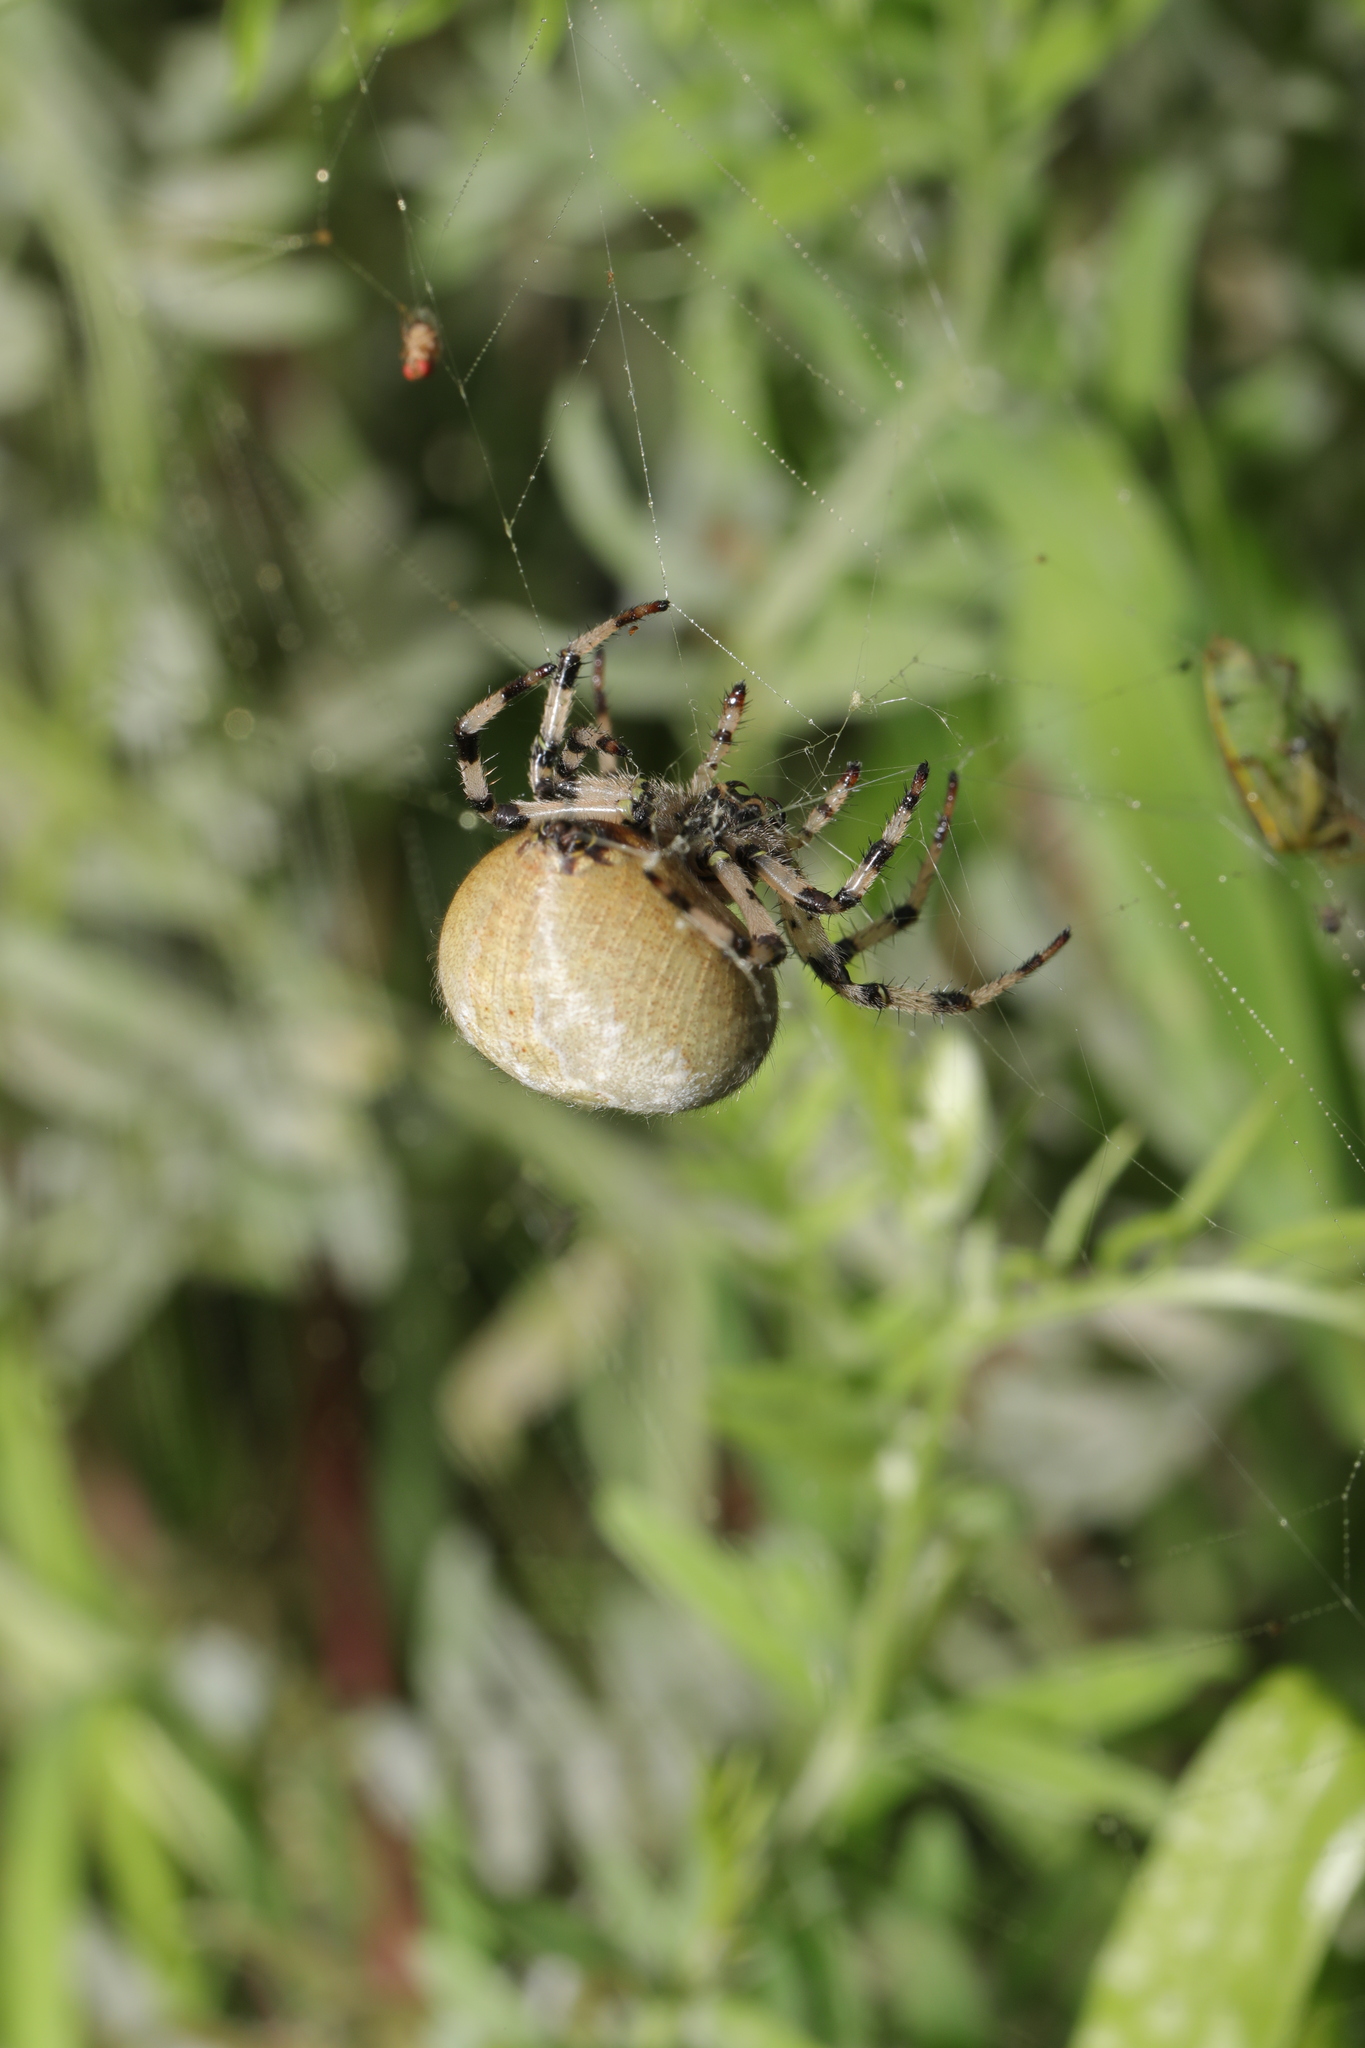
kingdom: Animalia
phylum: Arthropoda
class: Arachnida
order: Araneae
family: Araneidae
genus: Araneus
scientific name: Araneus quadratus
